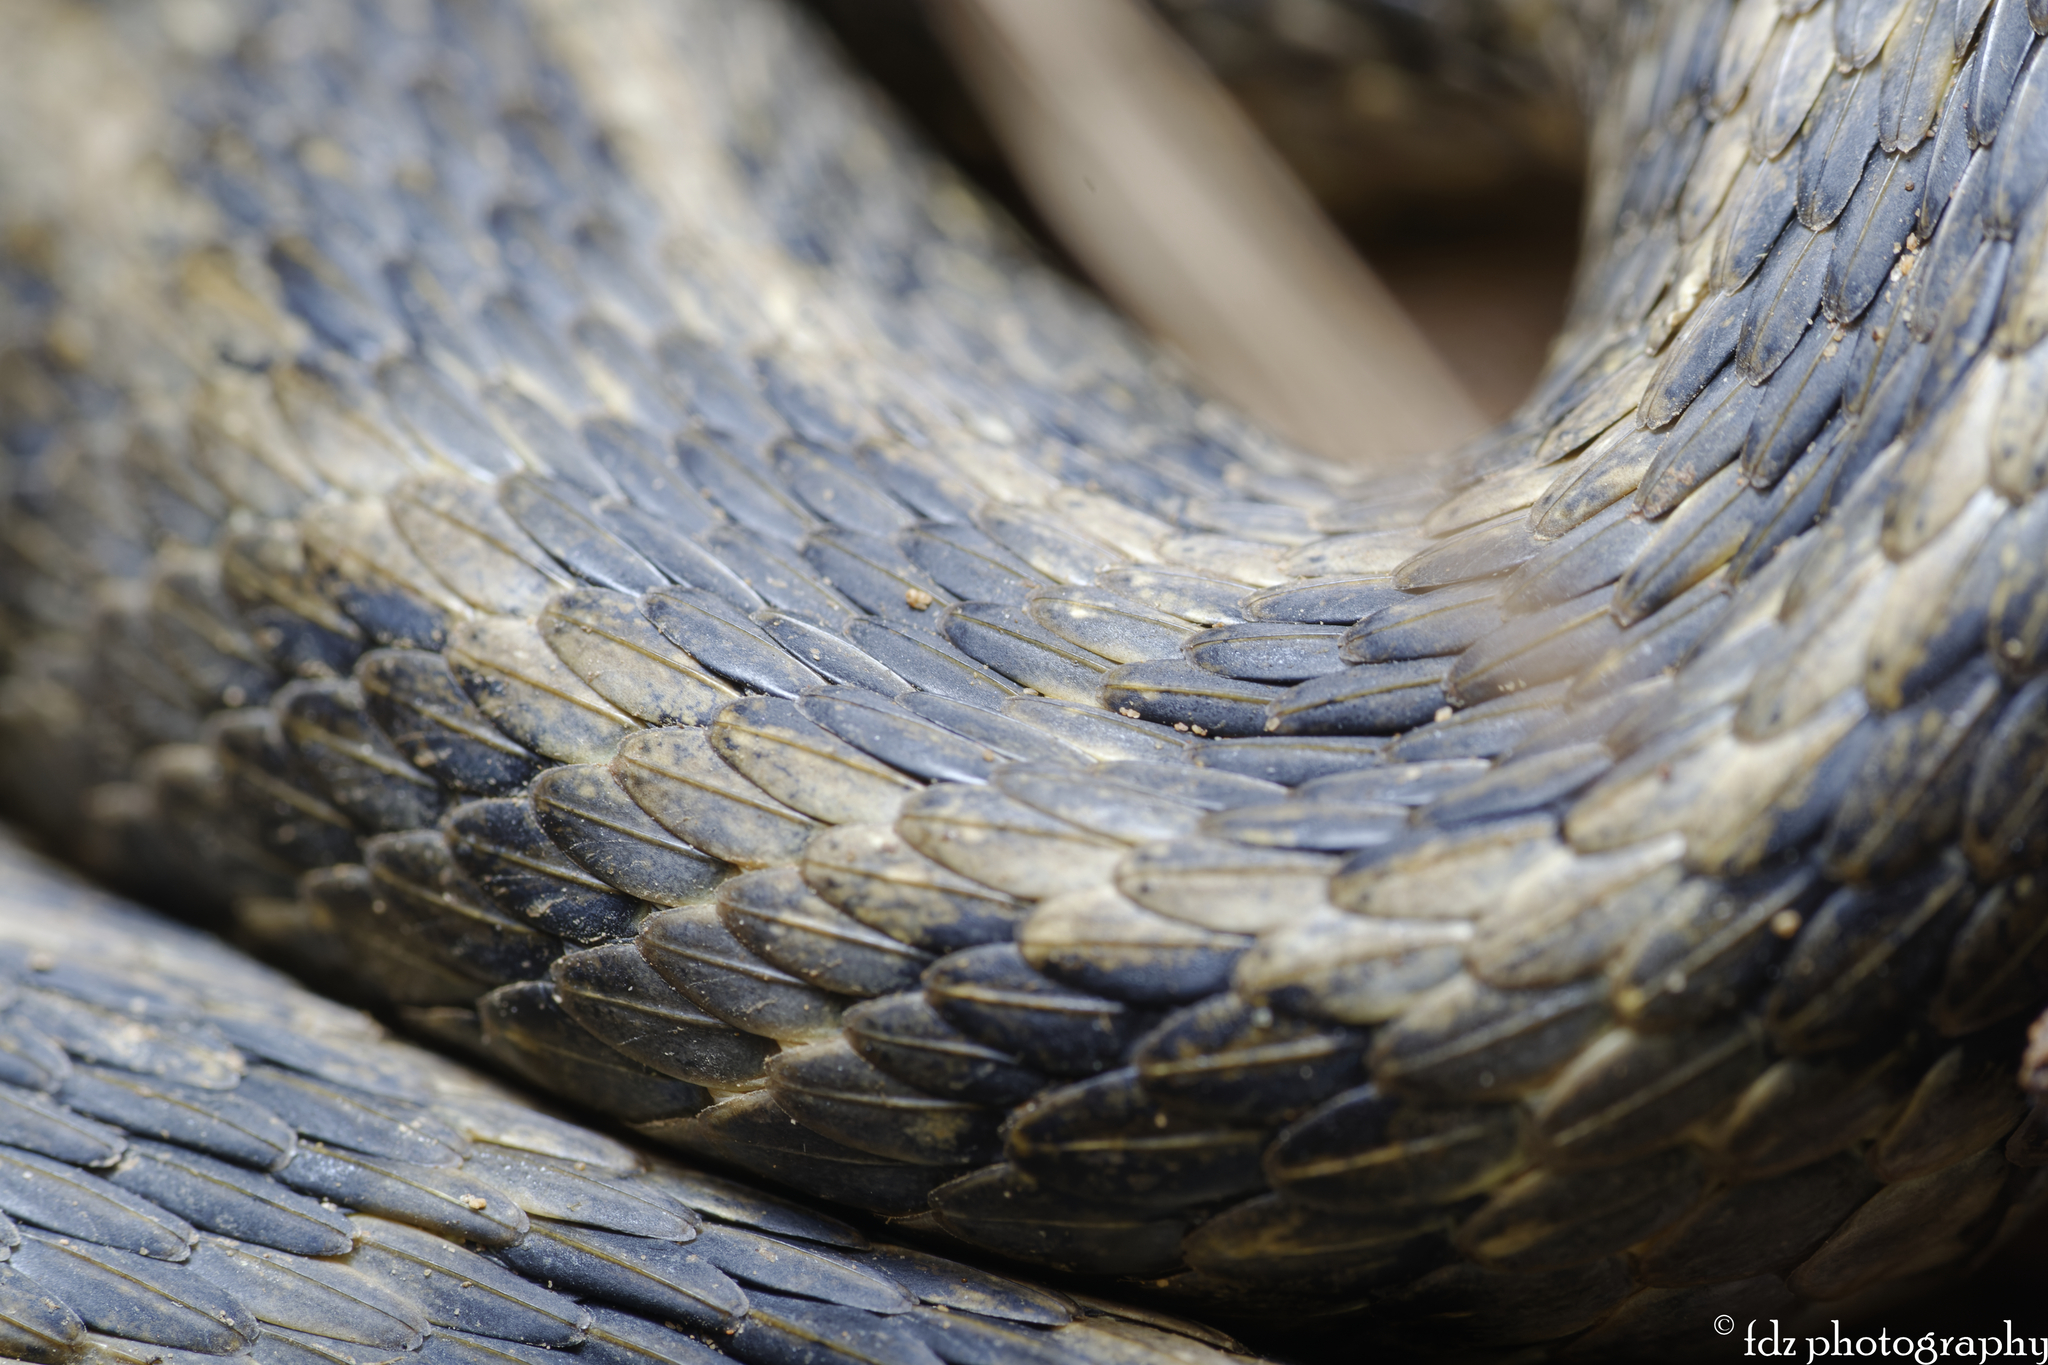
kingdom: Animalia
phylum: Chordata
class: Squamata
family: Colubridae
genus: Natrix
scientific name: Natrix maura
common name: Viperine water snake
